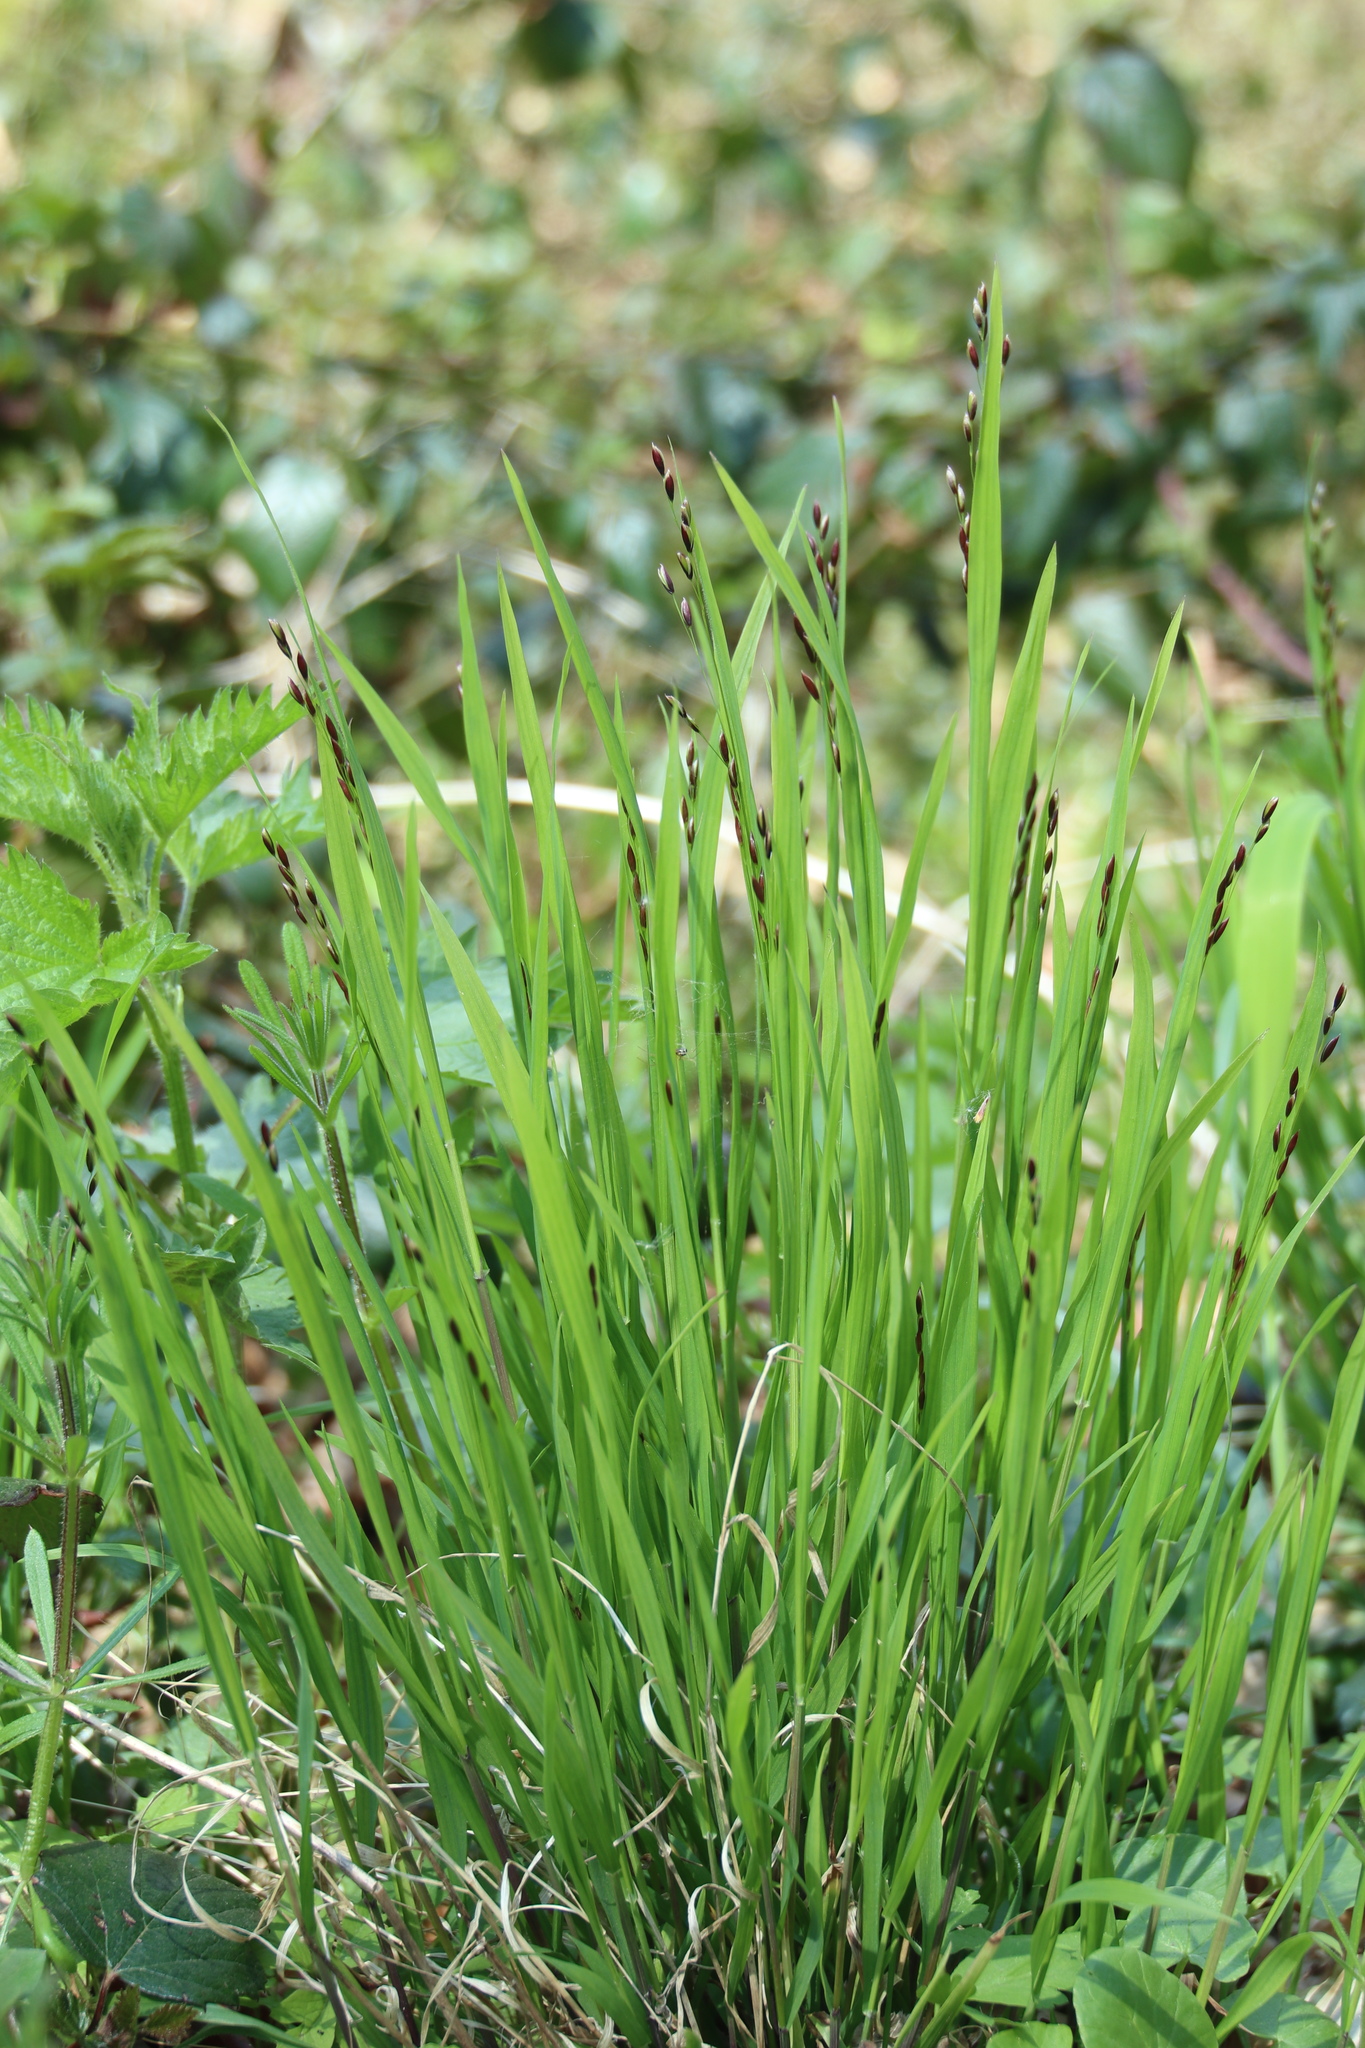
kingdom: Plantae
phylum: Tracheophyta
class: Liliopsida
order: Poales
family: Poaceae
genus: Melica
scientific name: Melica uniflora
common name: Wood melick
